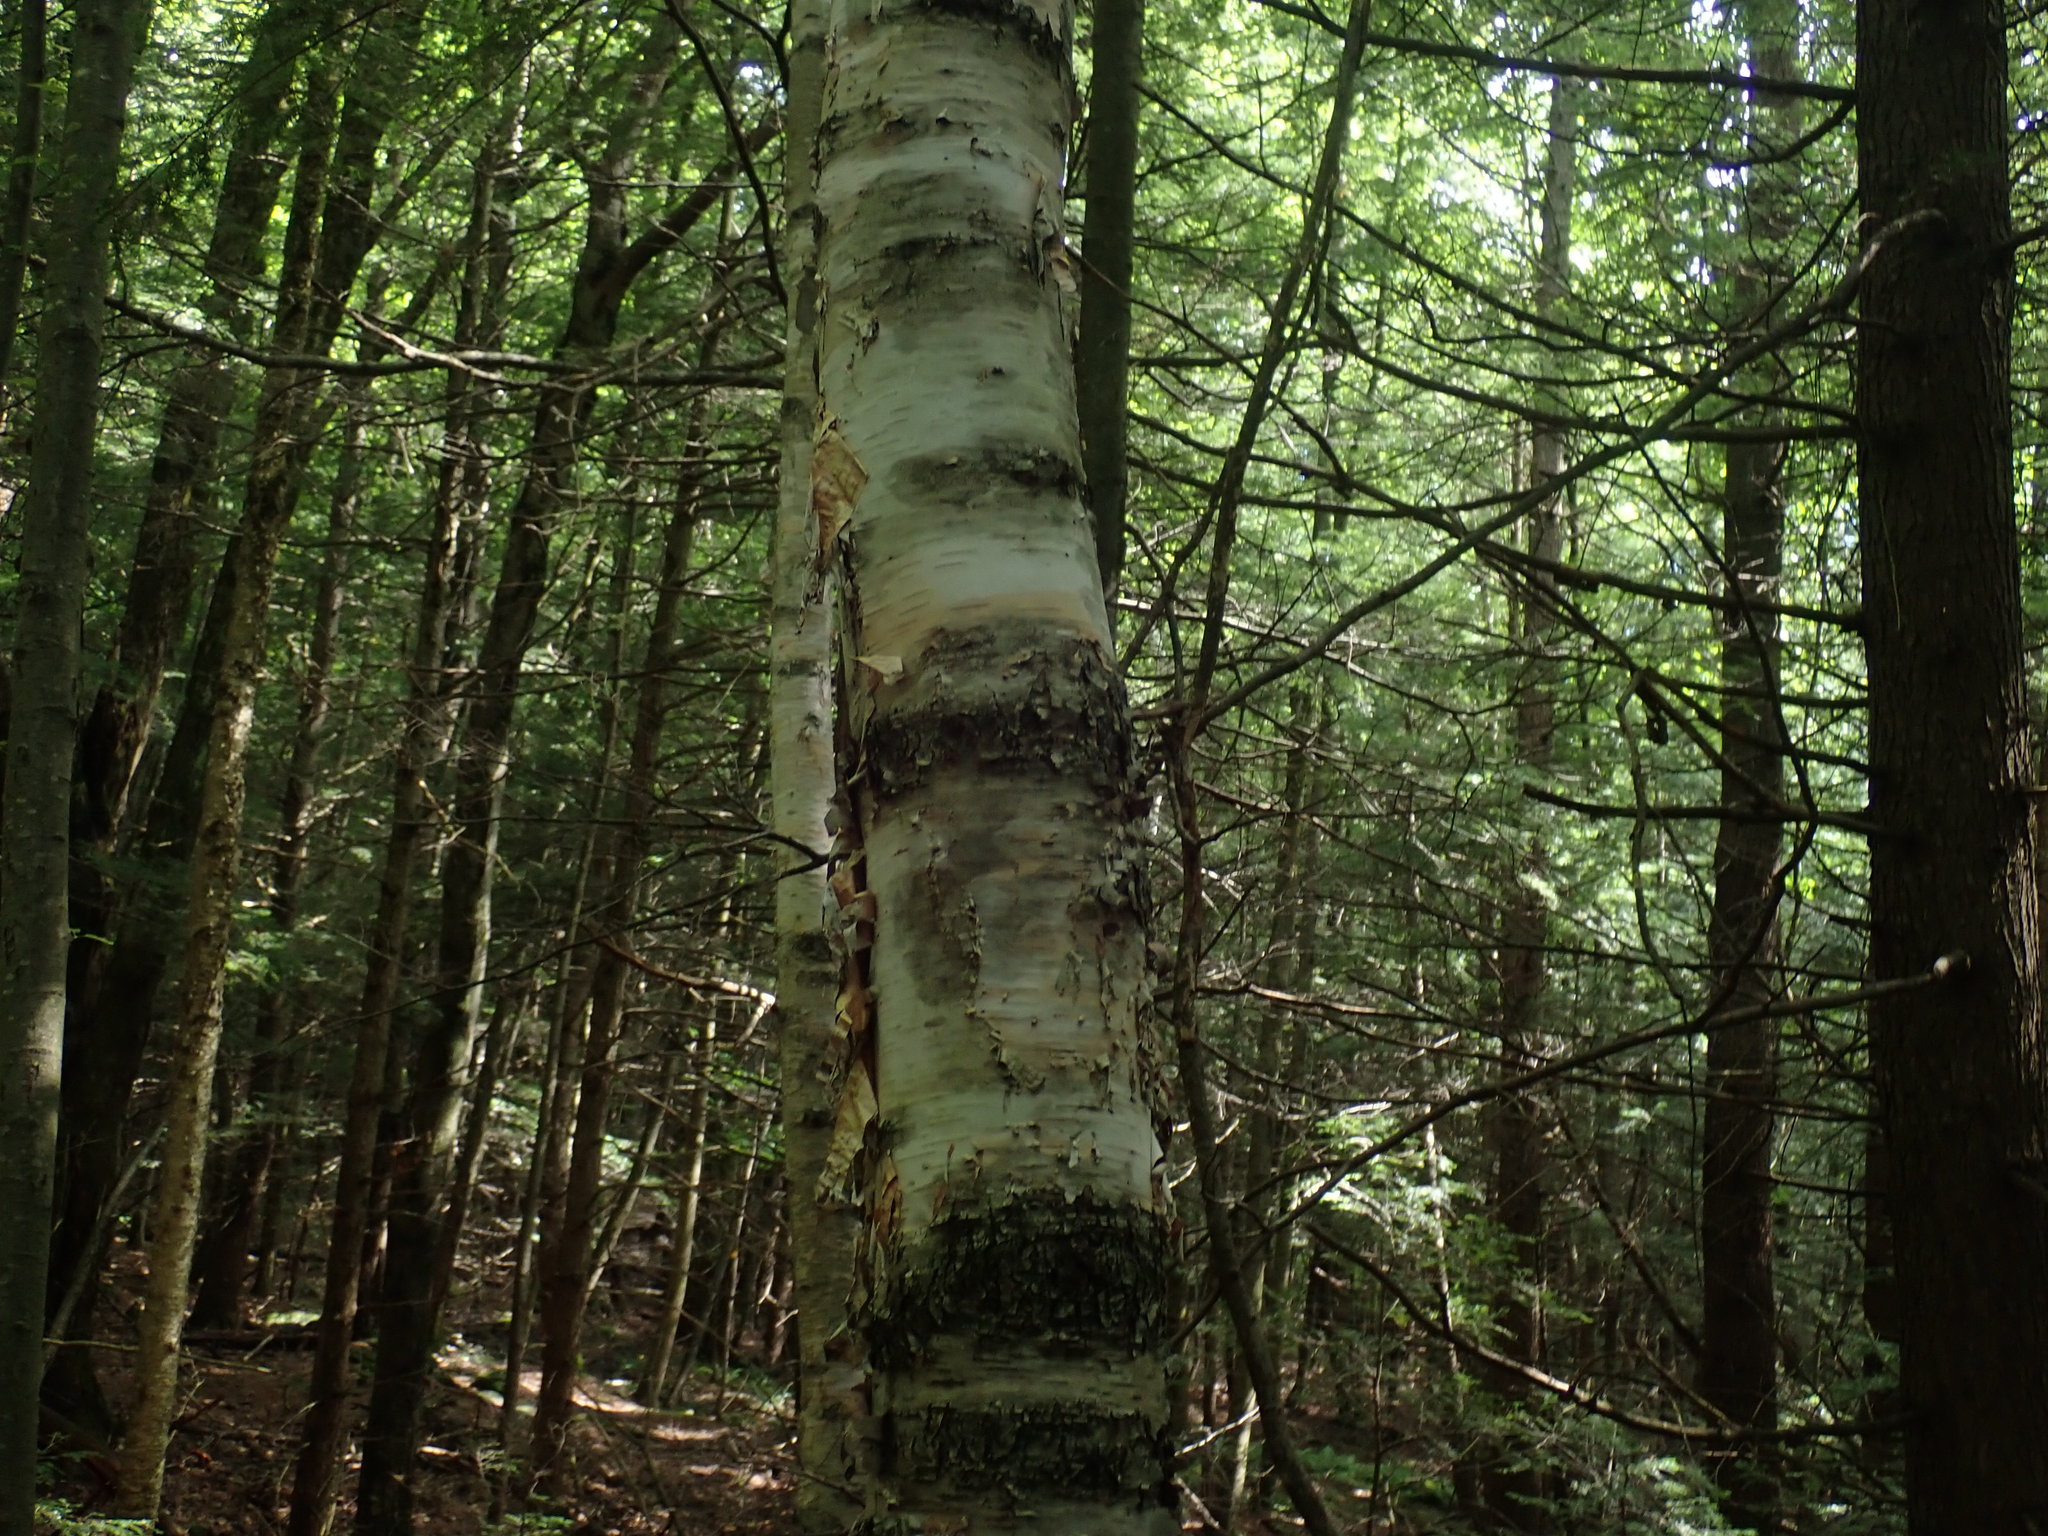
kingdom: Plantae
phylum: Tracheophyta
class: Magnoliopsida
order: Fagales
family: Betulaceae
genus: Betula
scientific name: Betula papyrifera
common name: Paper birch
